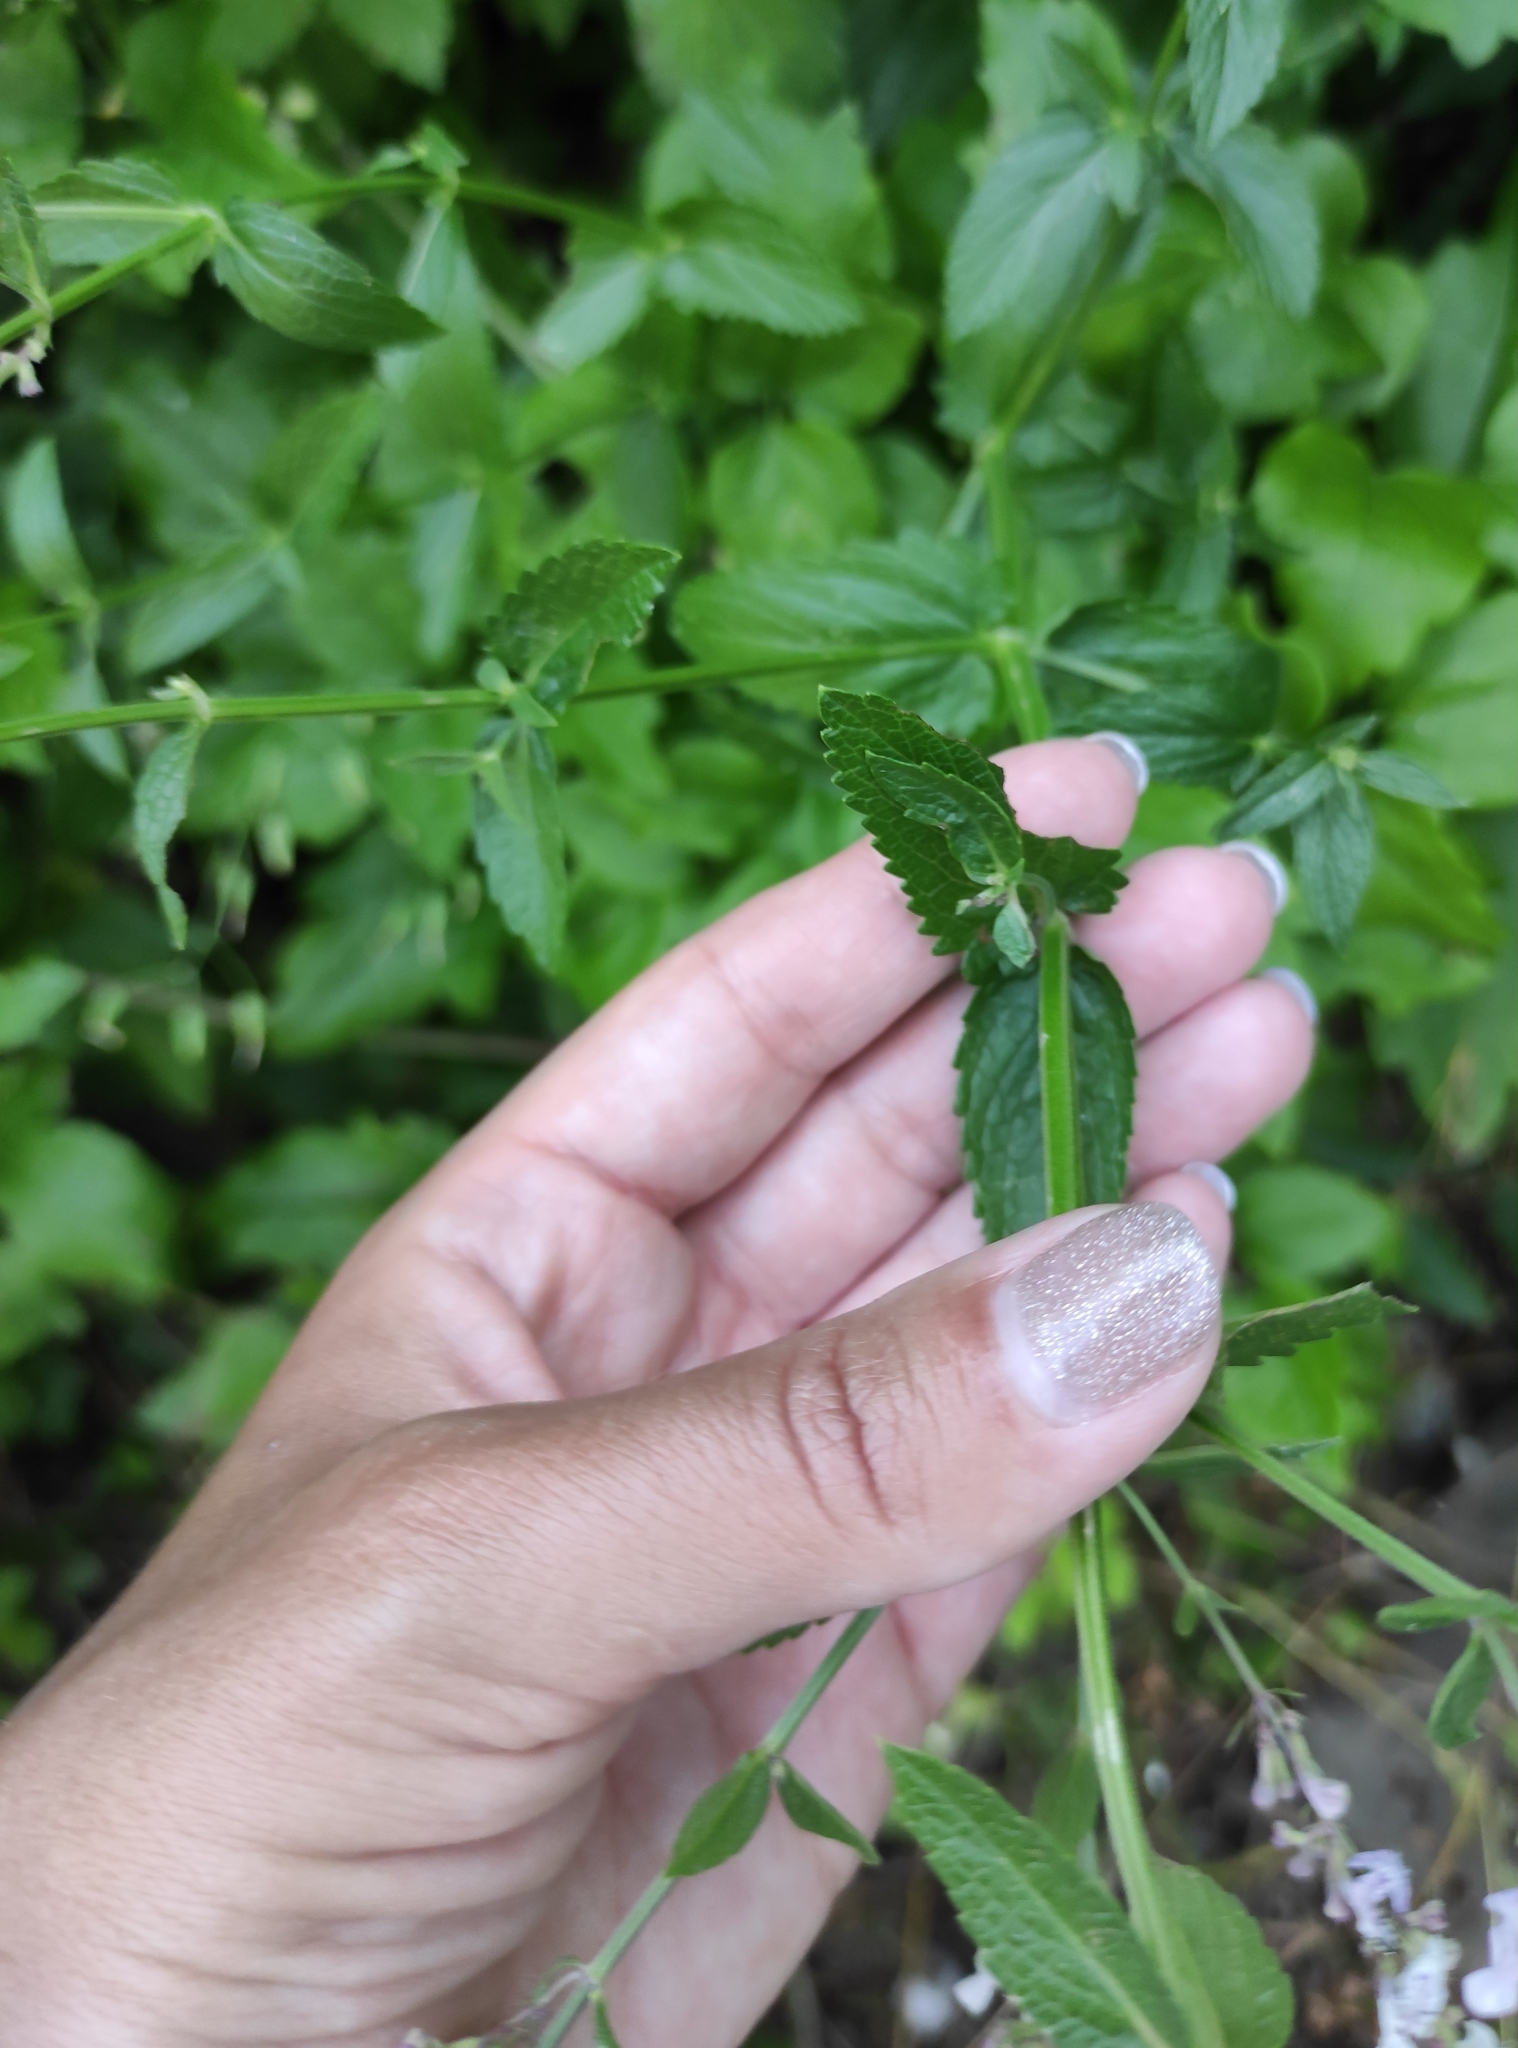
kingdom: Plantae
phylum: Tracheophyta
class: Magnoliopsida
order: Lamiales
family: Lamiaceae
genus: Nepeta
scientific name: Nepeta nuda
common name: Hairless catmint
